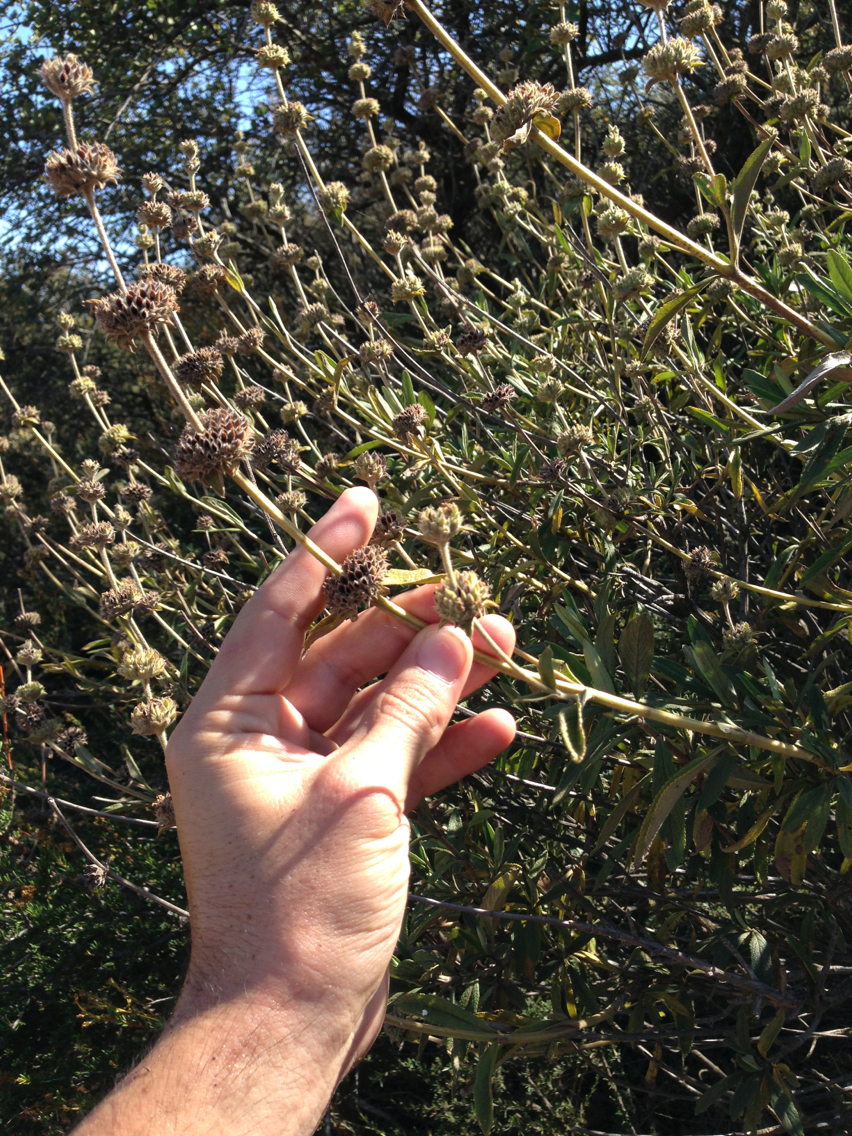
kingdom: Plantae
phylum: Tracheophyta
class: Magnoliopsida
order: Lamiales
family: Lamiaceae
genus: Salvia
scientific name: Salvia mellifera
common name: Black sage
